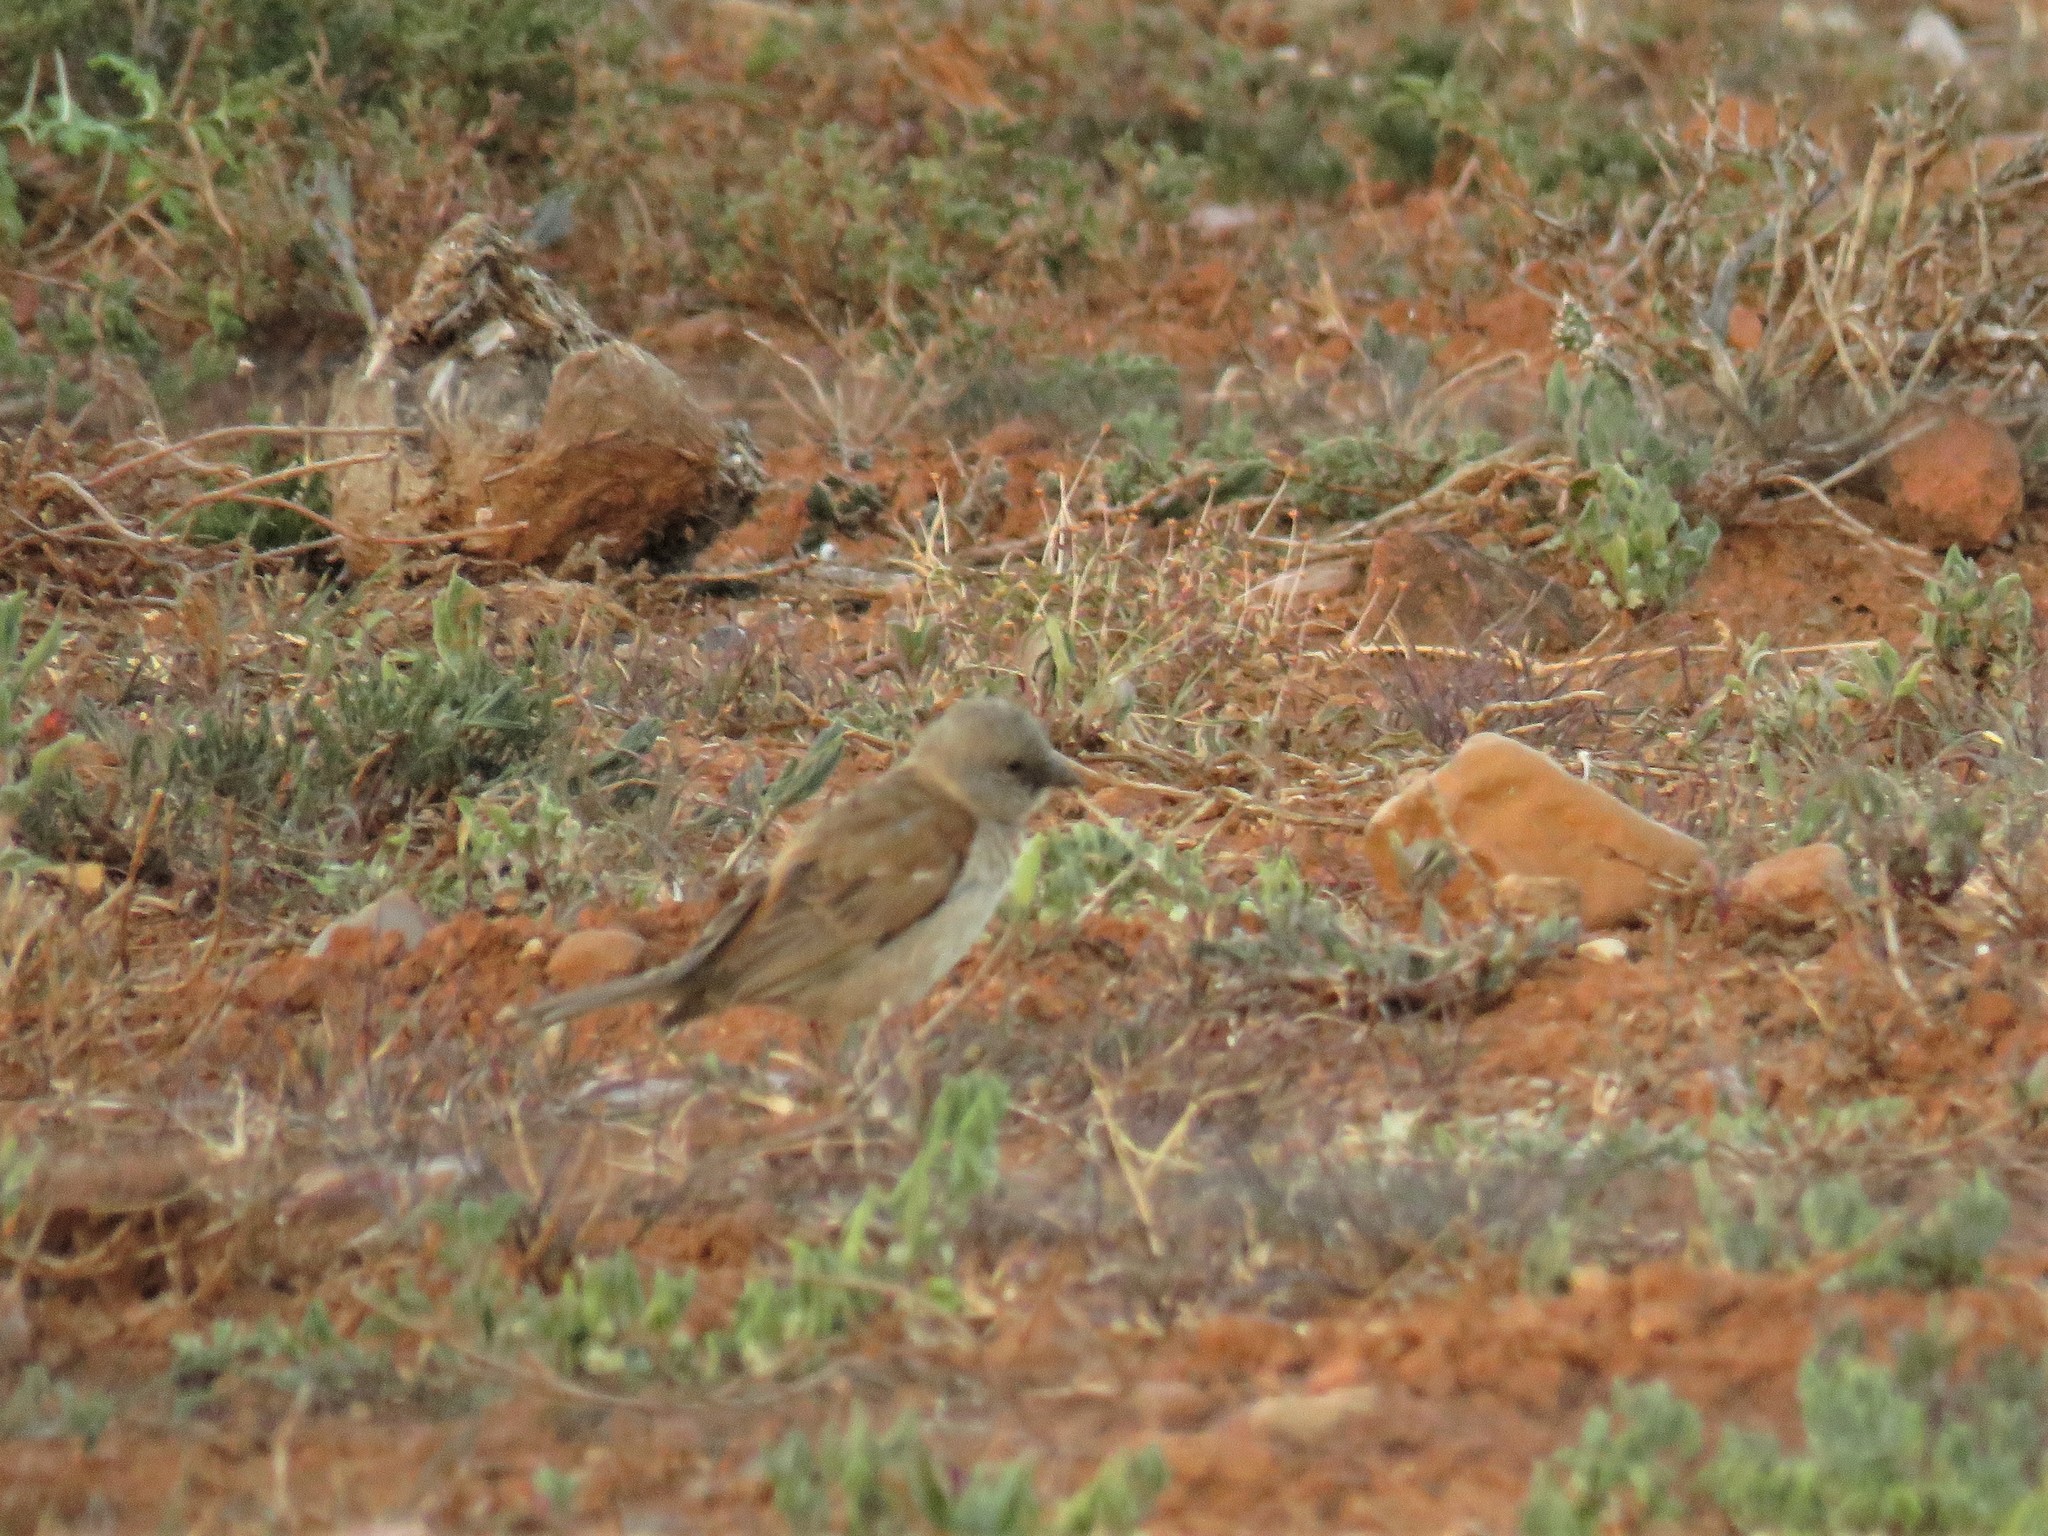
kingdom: Animalia
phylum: Chordata
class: Aves
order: Passeriformes
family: Passeridae
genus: Passer
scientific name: Passer diffusus
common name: Southern grey-headed sparrow
